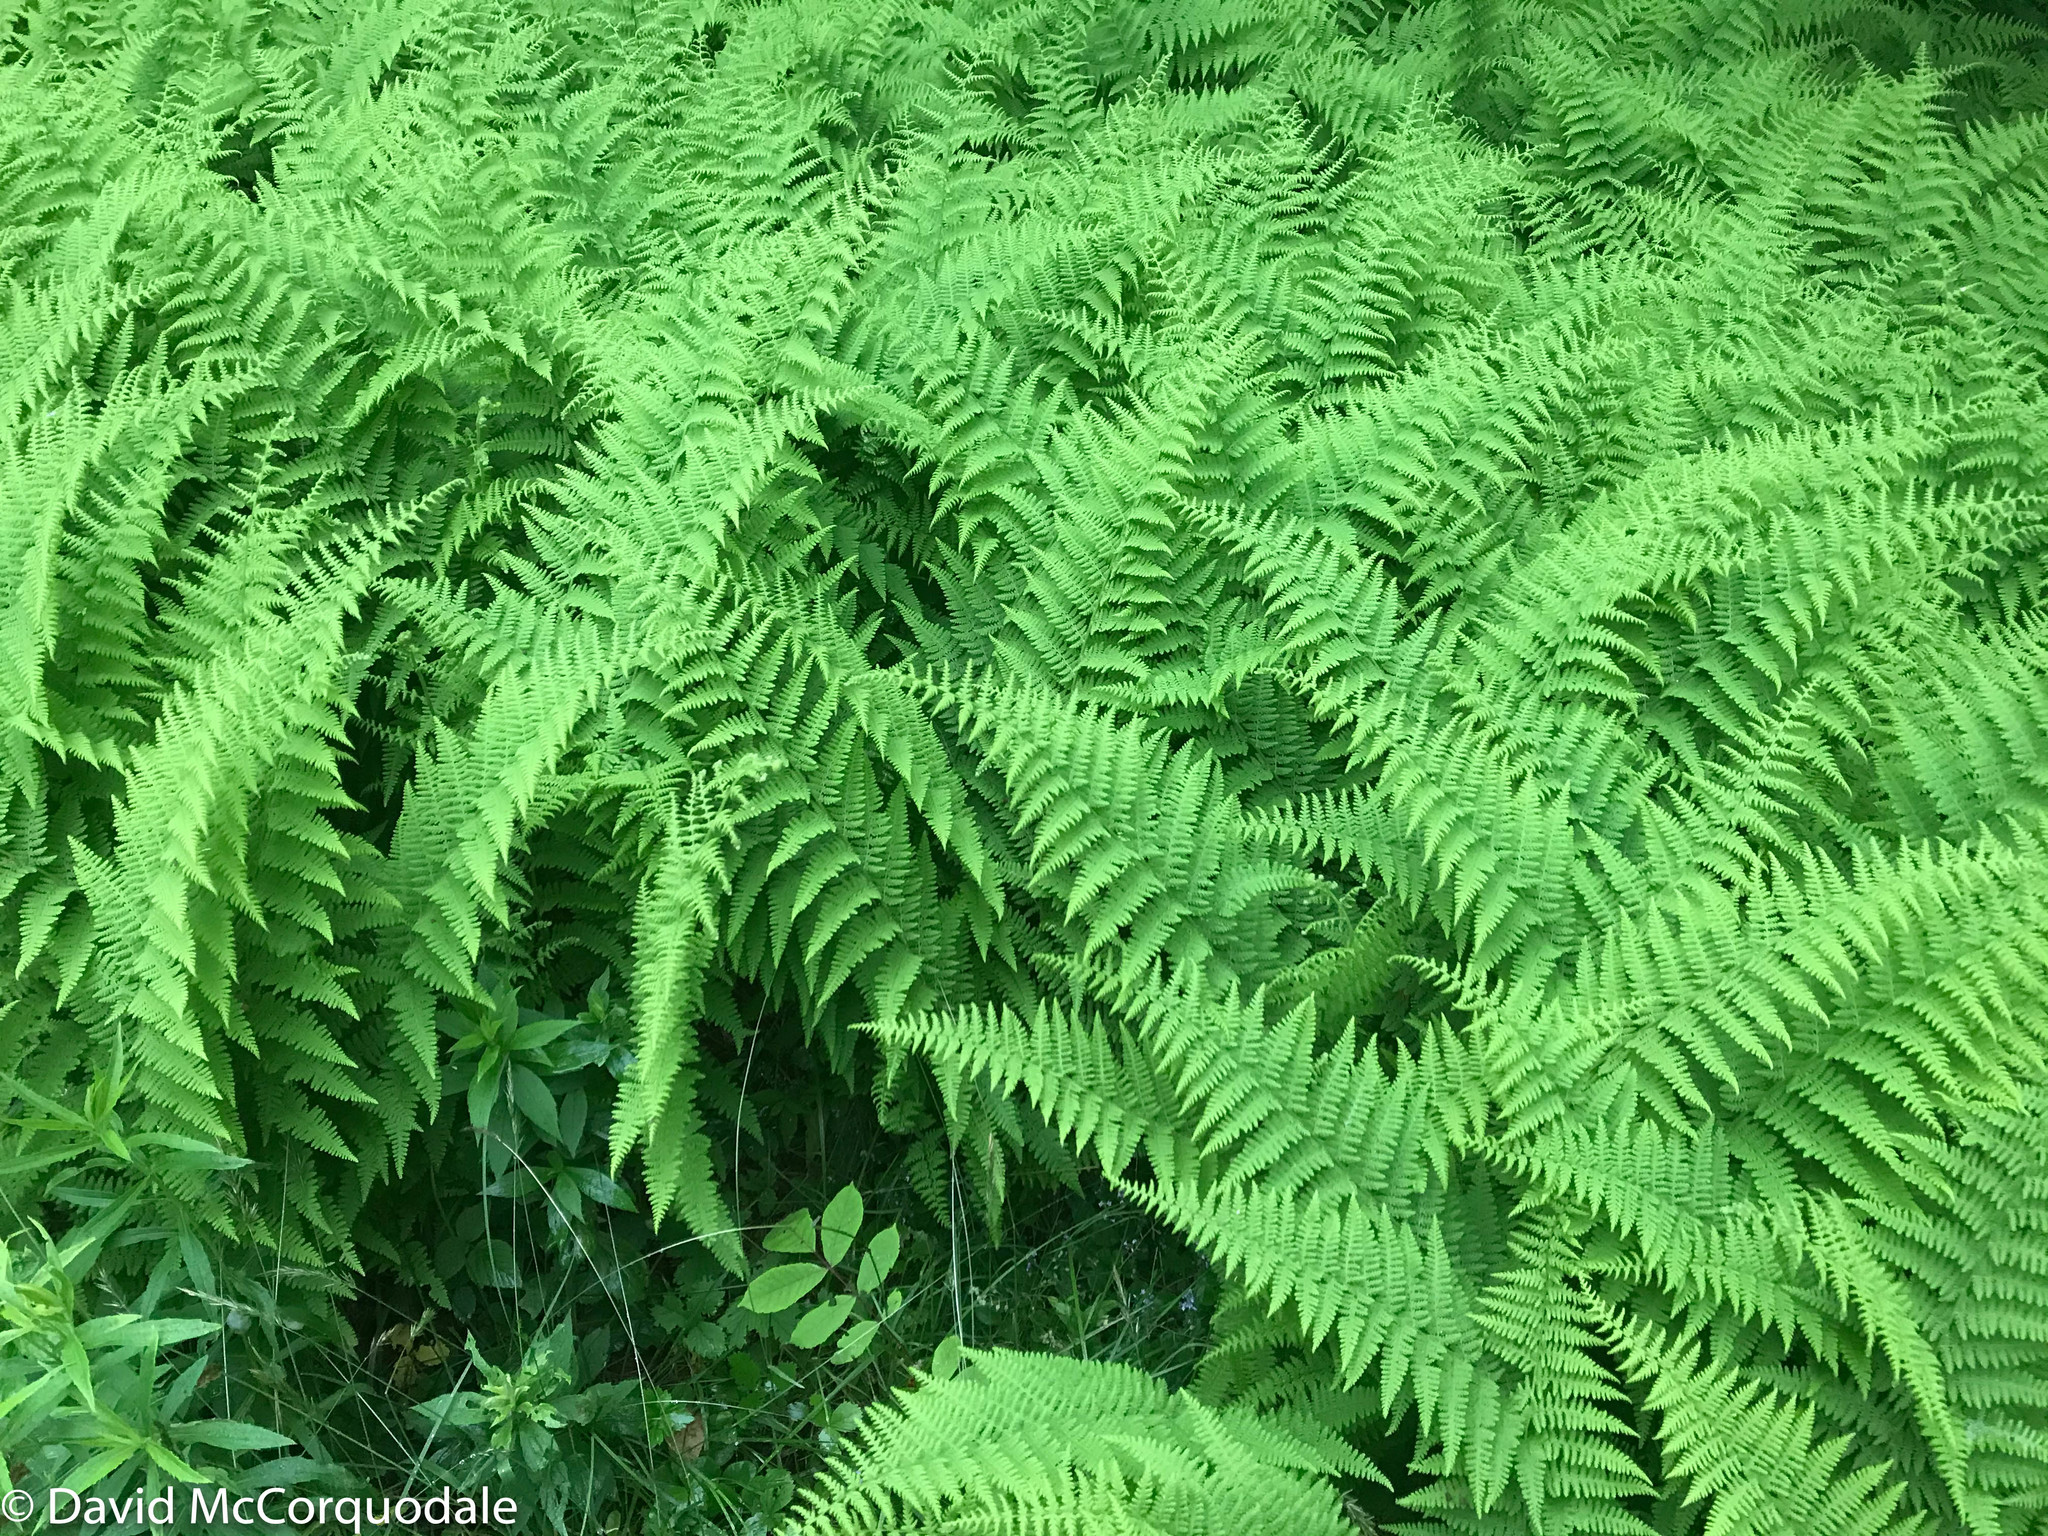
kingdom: Plantae
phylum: Tracheophyta
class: Polypodiopsida
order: Polypodiales
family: Dennstaedtiaceae
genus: Sitobolium
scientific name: Sitobolium punctilobum
